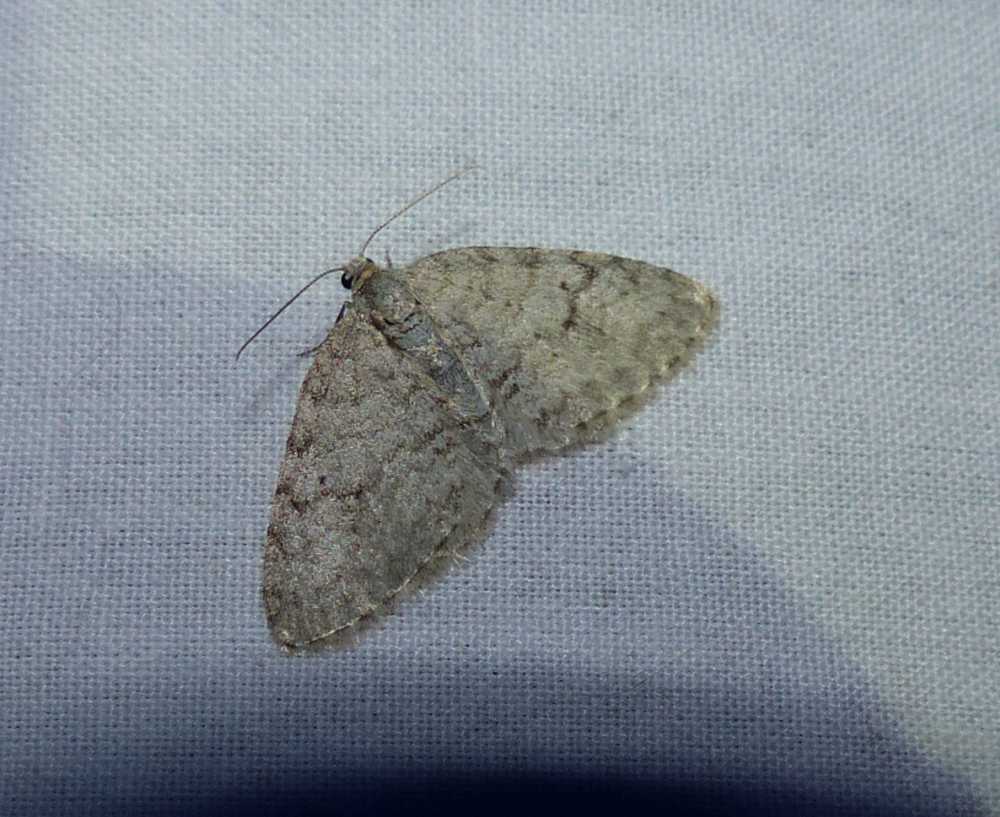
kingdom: Animalia
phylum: Arthropoda
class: Insecta
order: Lepidoptera
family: Geometridae
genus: Venusia
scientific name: Venusia comptaria
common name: Brown-shaded carpet
